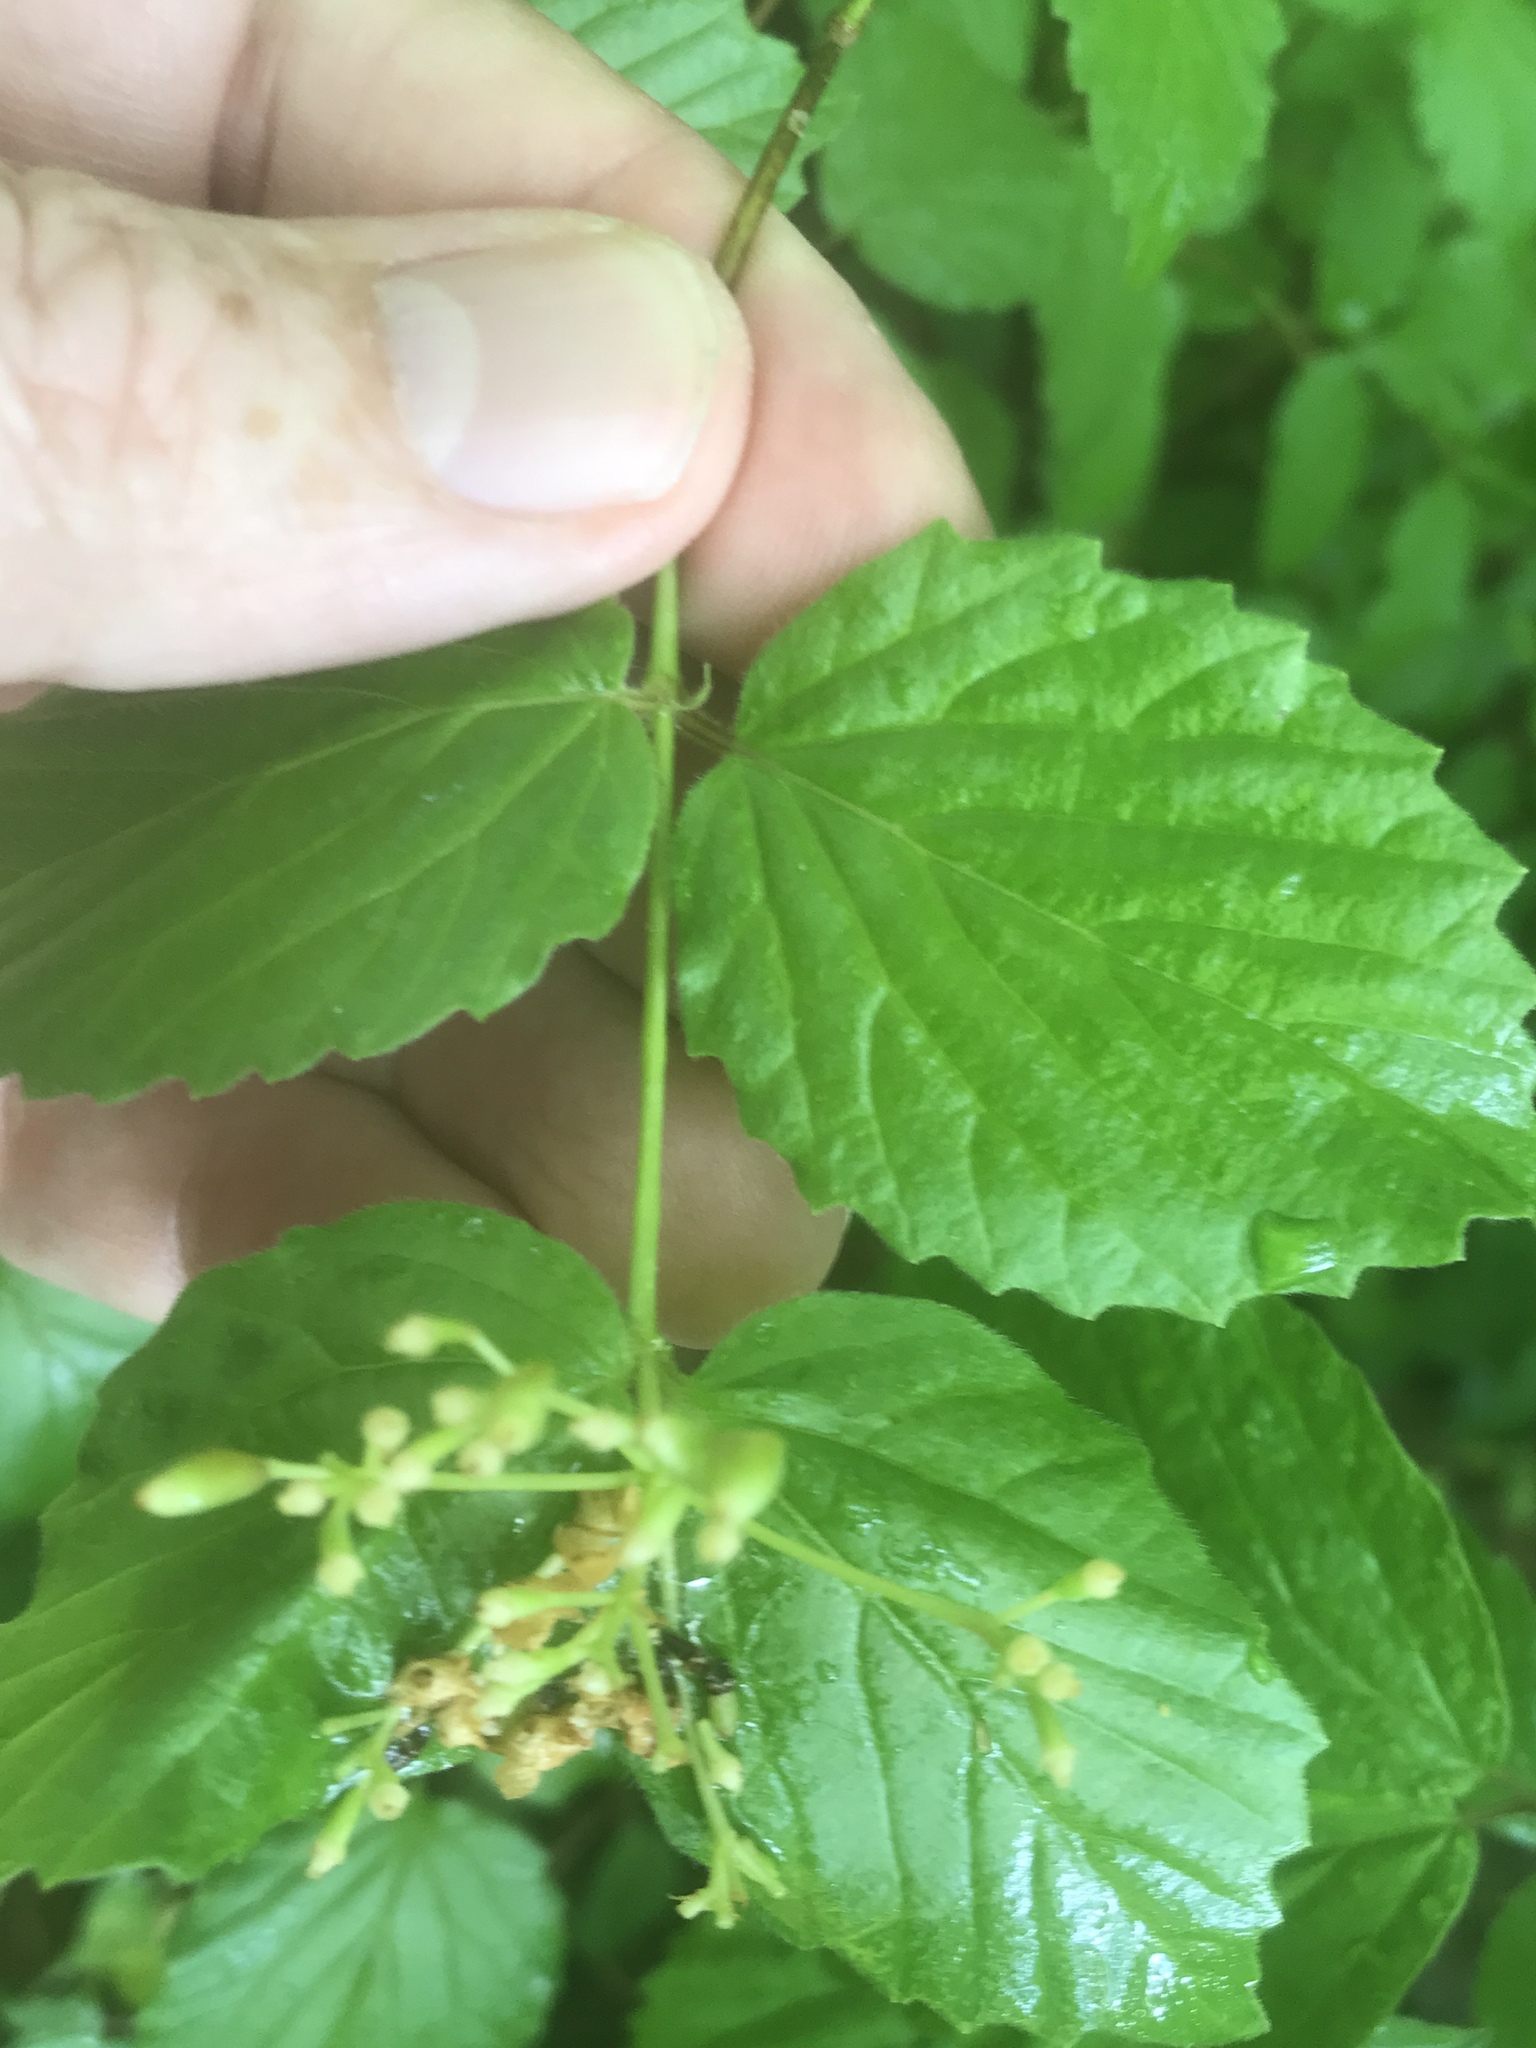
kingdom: Plantae
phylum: Tracheophyta
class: Magnoliopsida
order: Dipsacales
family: Viburnaceae
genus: Viburnum
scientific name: Viburnum rafinesqueanum
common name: Downy arrow-wood
